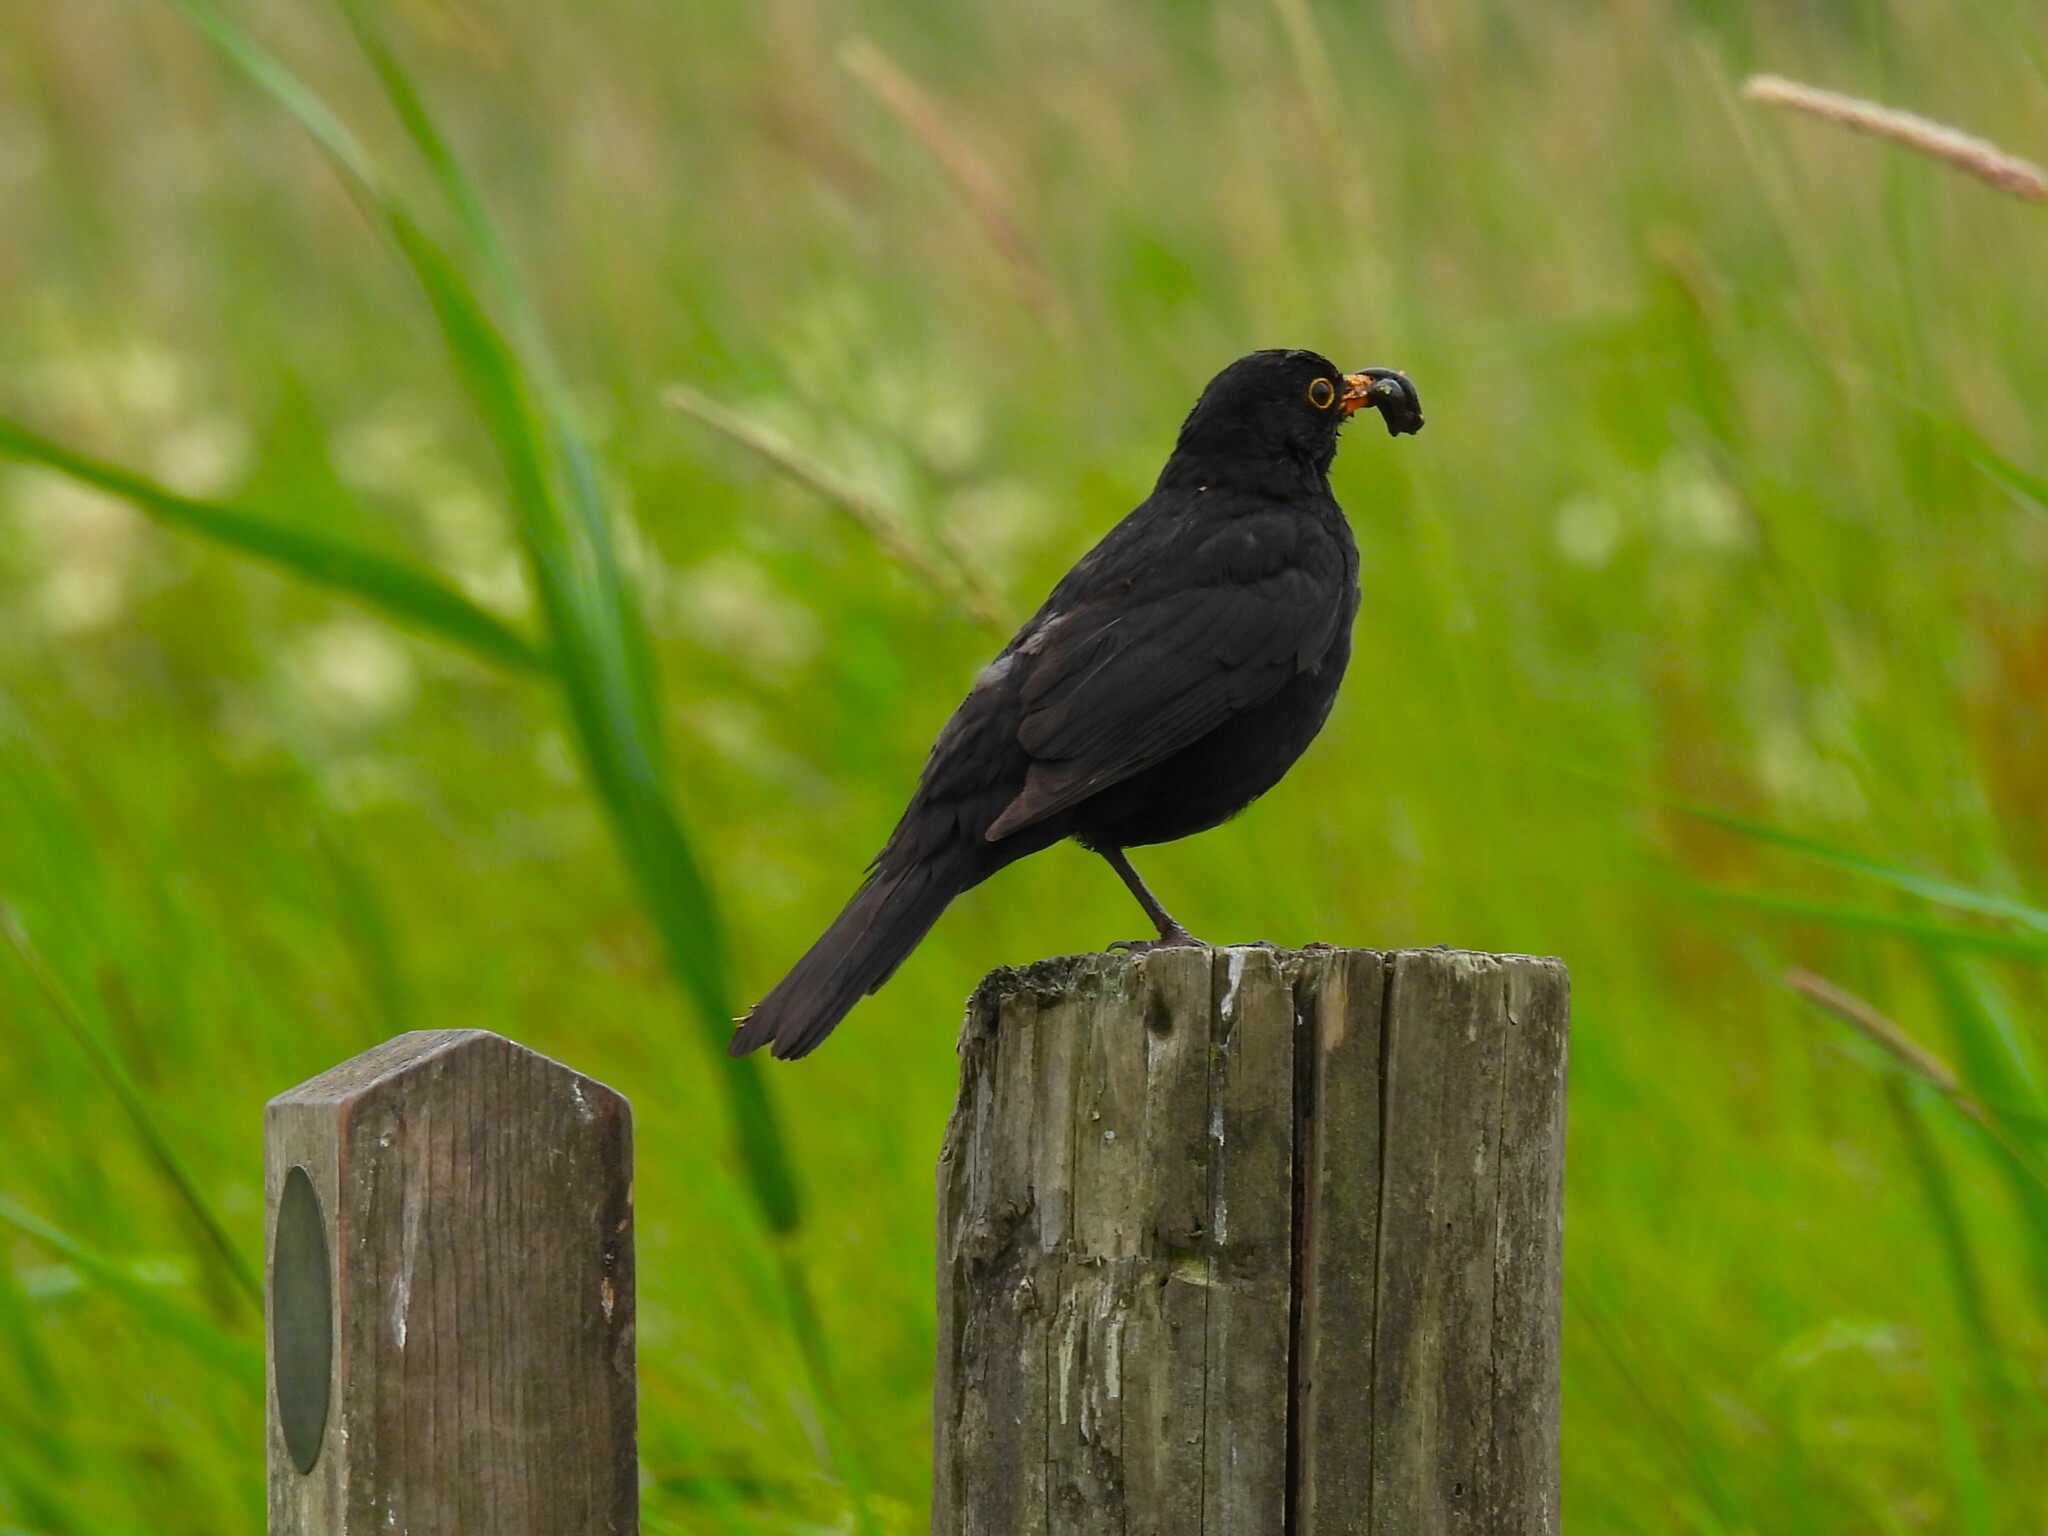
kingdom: Animalia
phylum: Chordata
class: Aves
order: Passeriformes
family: Turdidae
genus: Turdus
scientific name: Turdus merula
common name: Common blackbird
